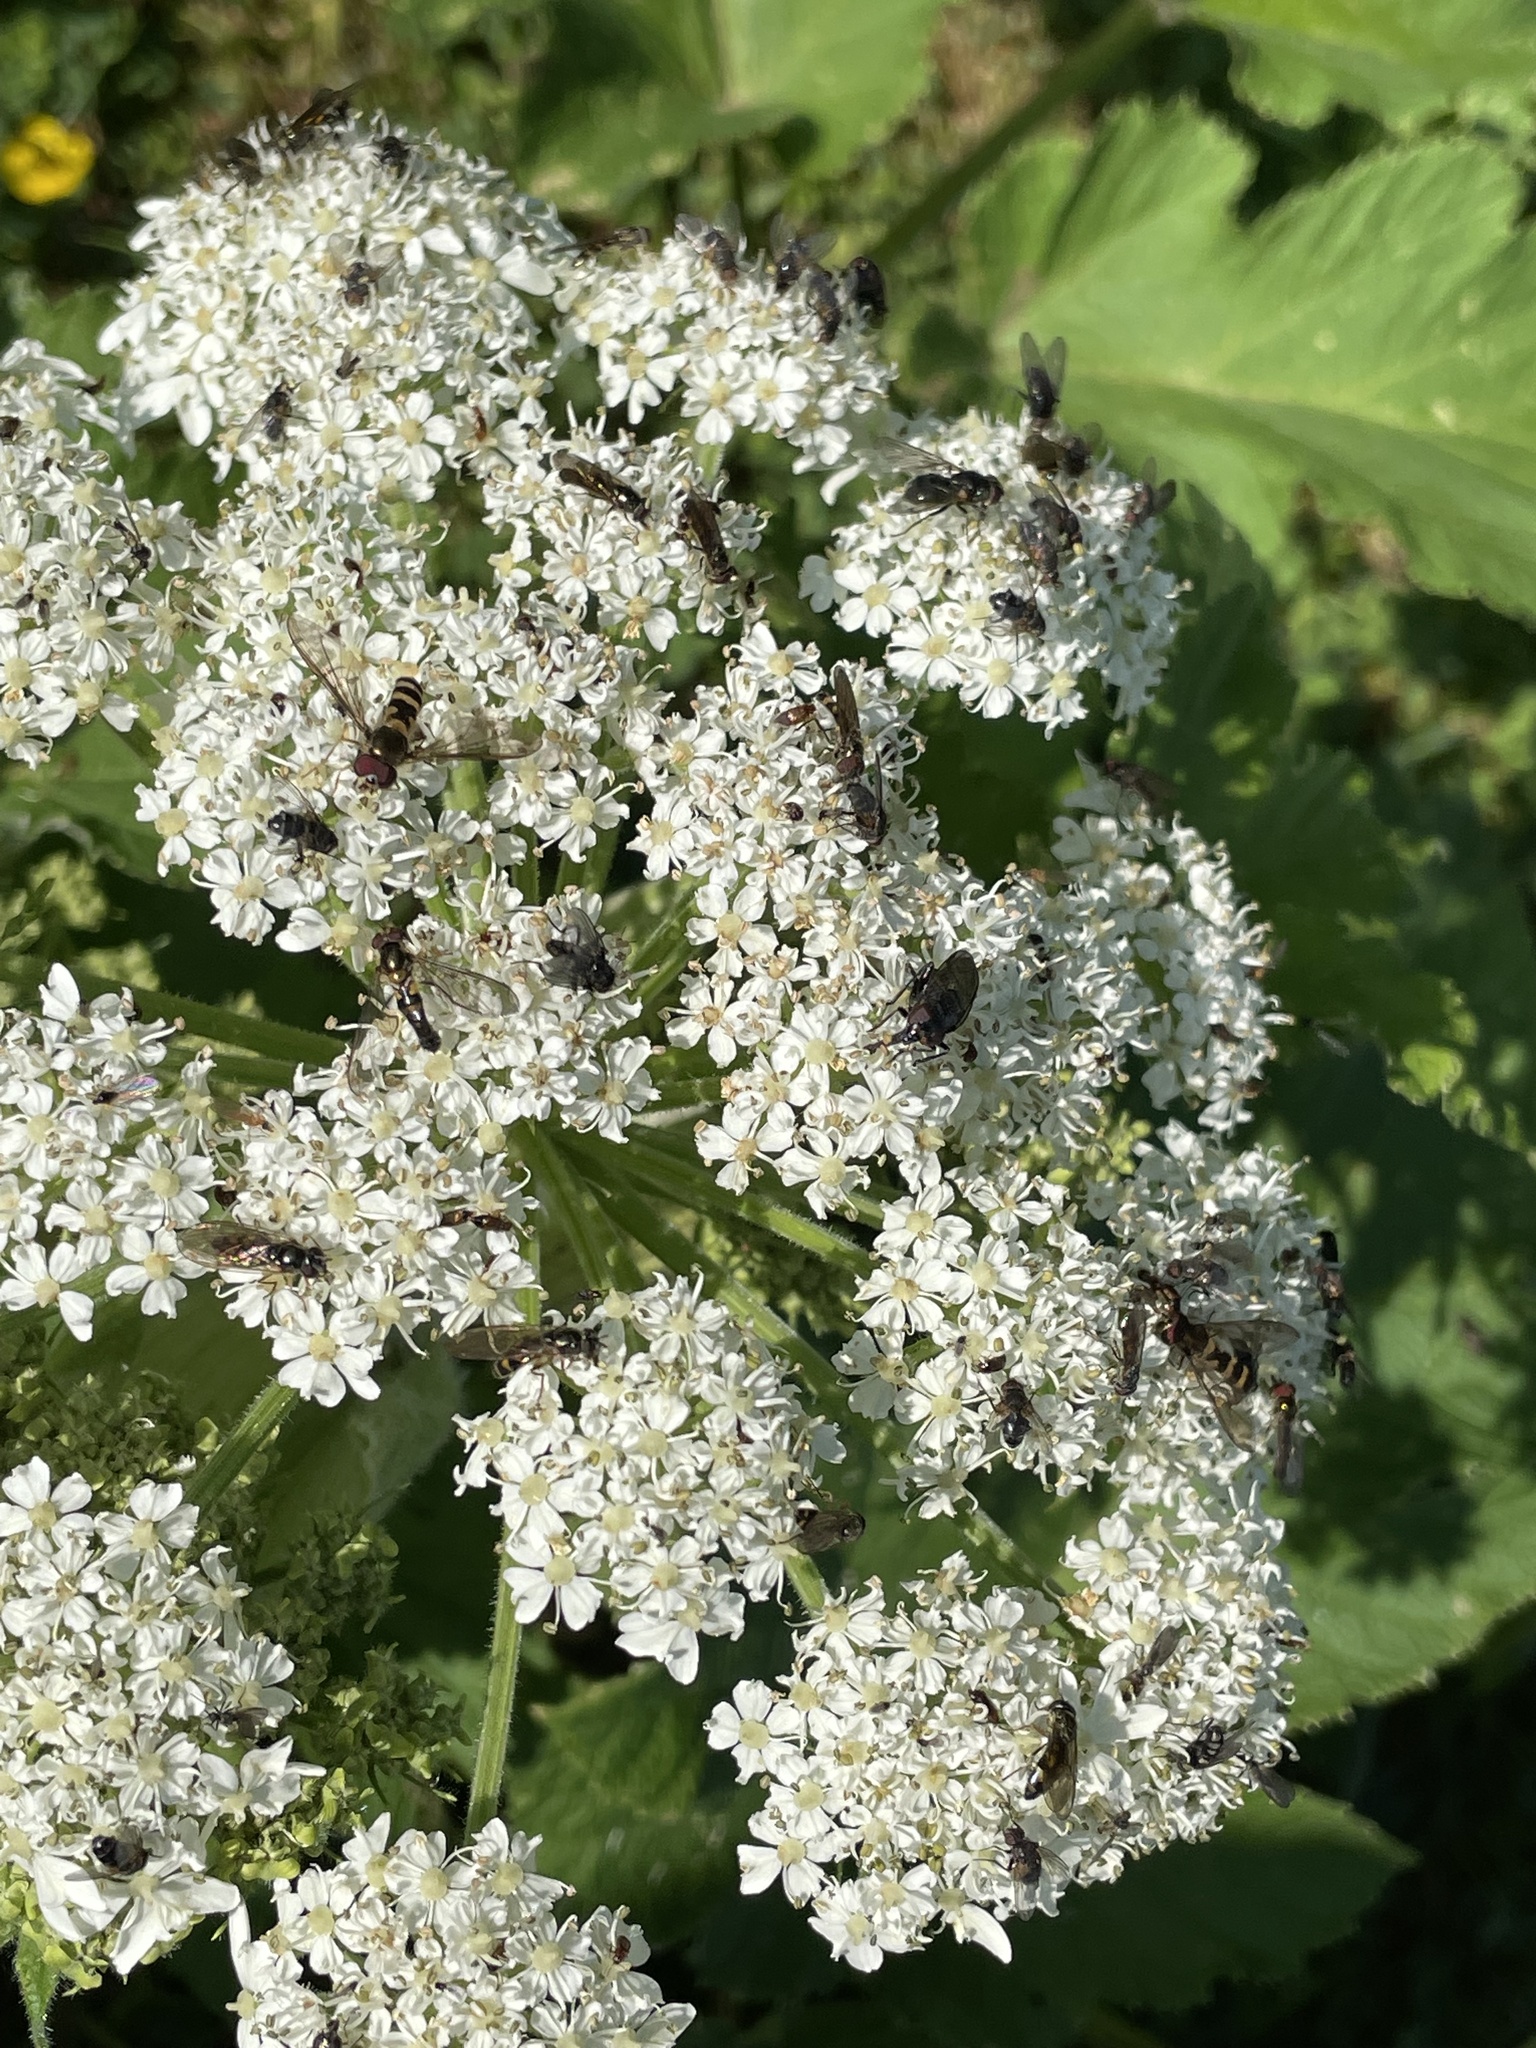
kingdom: Plantae
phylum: Tracheophyta
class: Magnoliopsida
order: Apiales
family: Apiaceae
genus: Heracleum
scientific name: Heracleum maximum
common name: American cow parsnip
